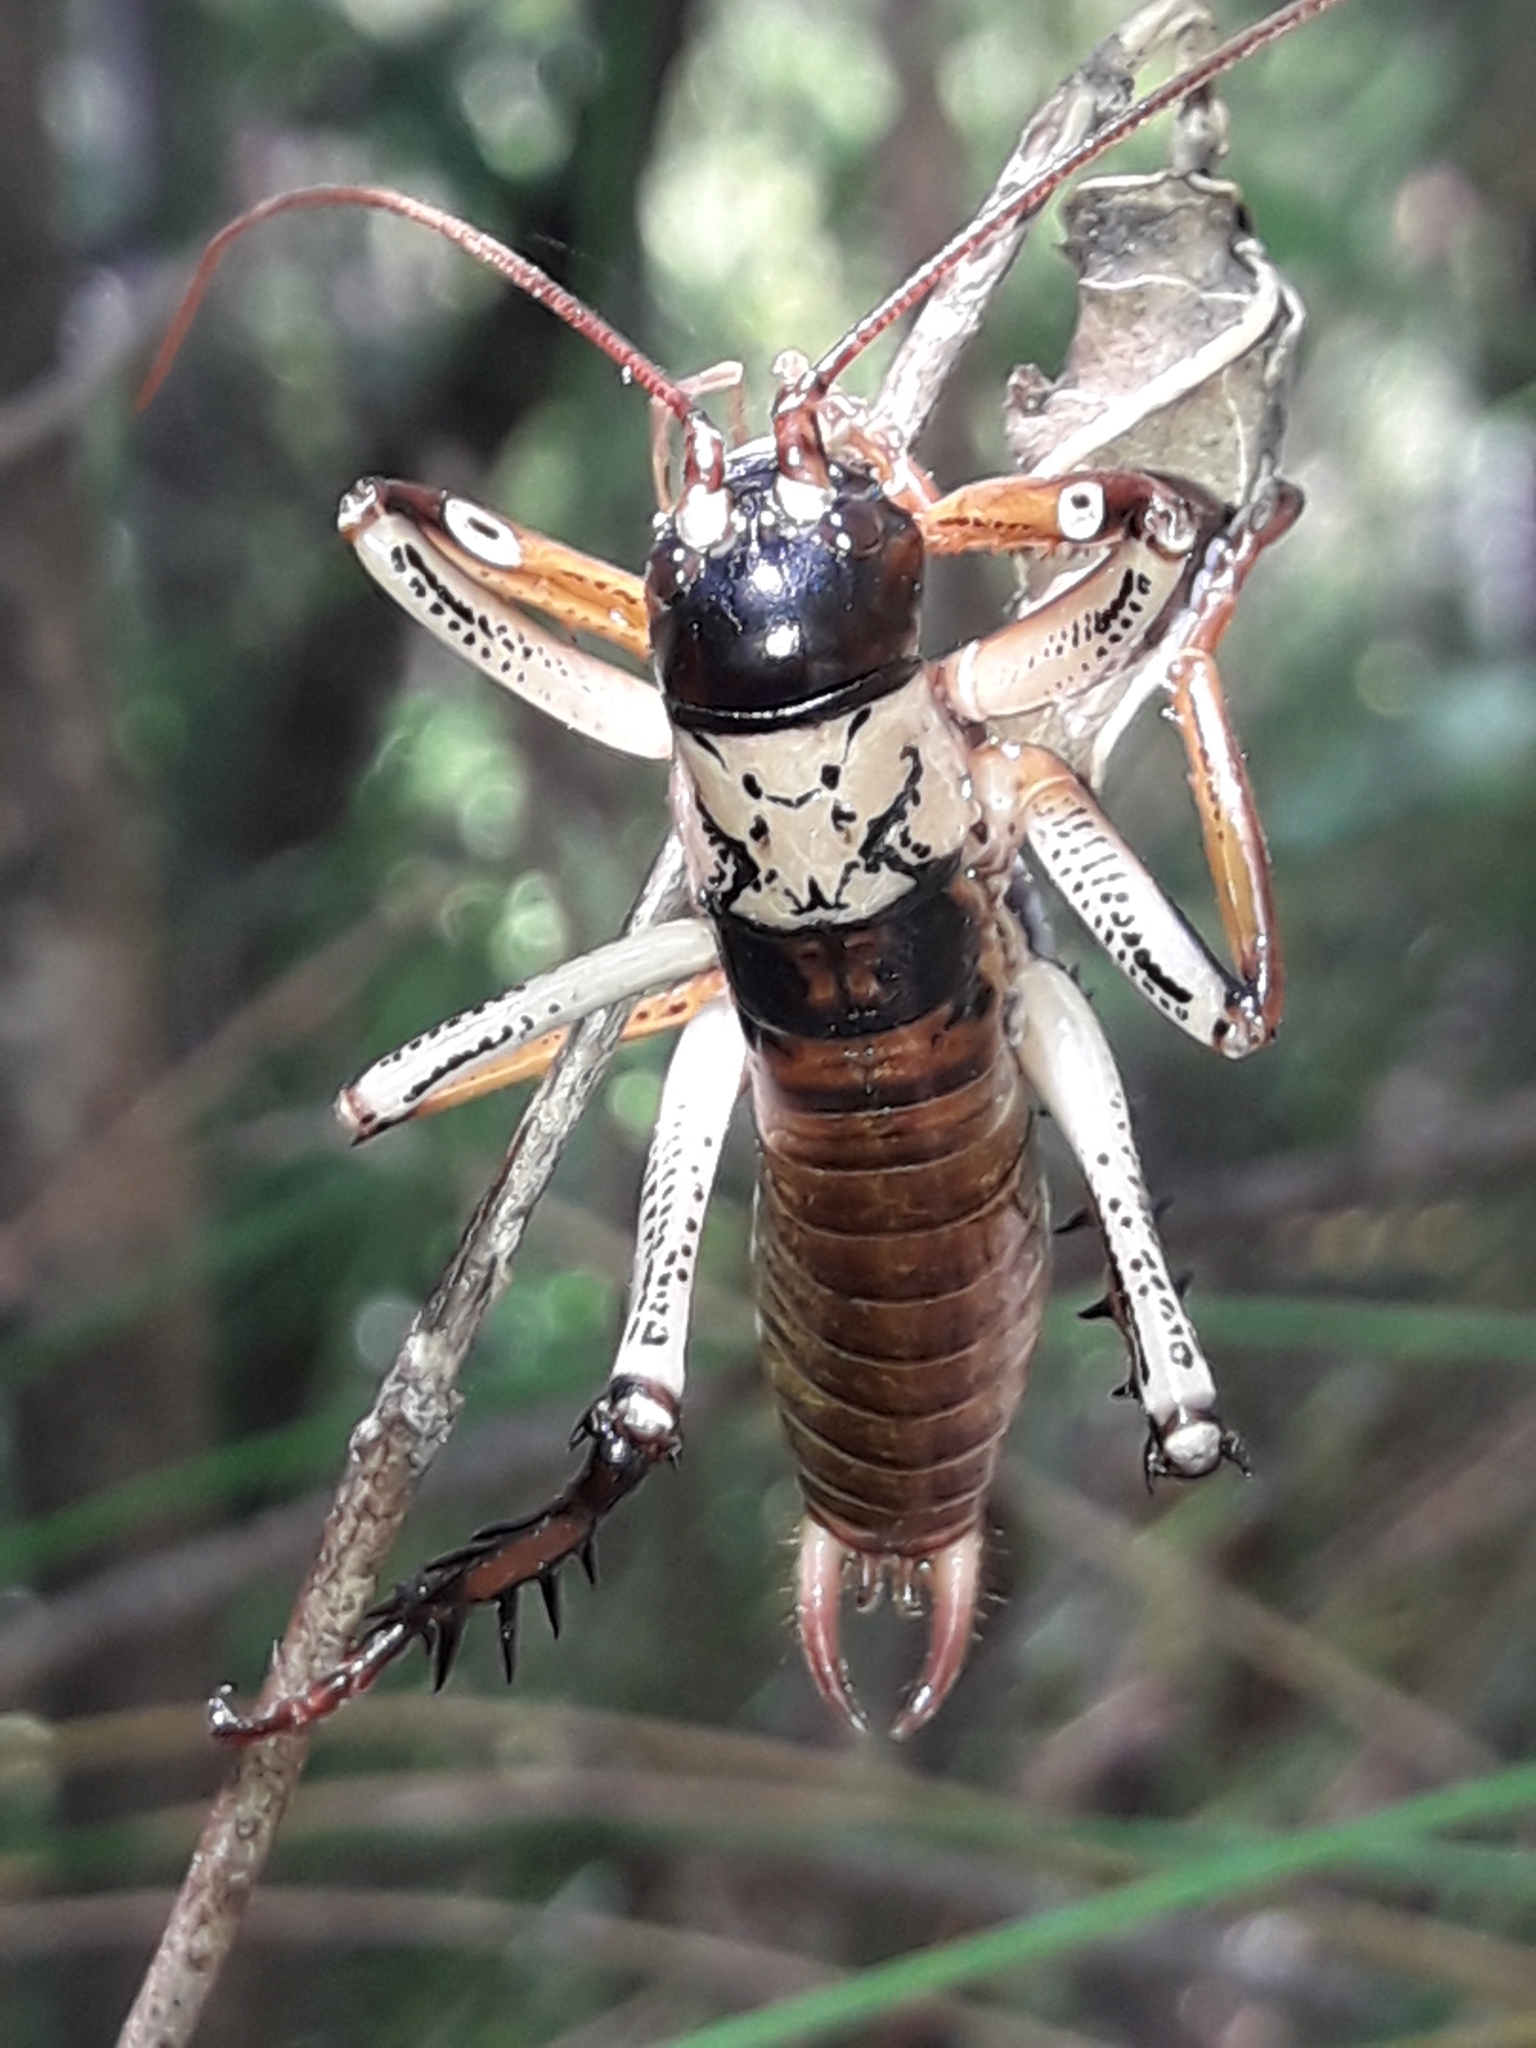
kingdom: Animalia
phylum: Arthropoda
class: Insecta
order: Orthoptera
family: Anostostomatidae
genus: Hemideina
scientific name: Hemideina thoracica
